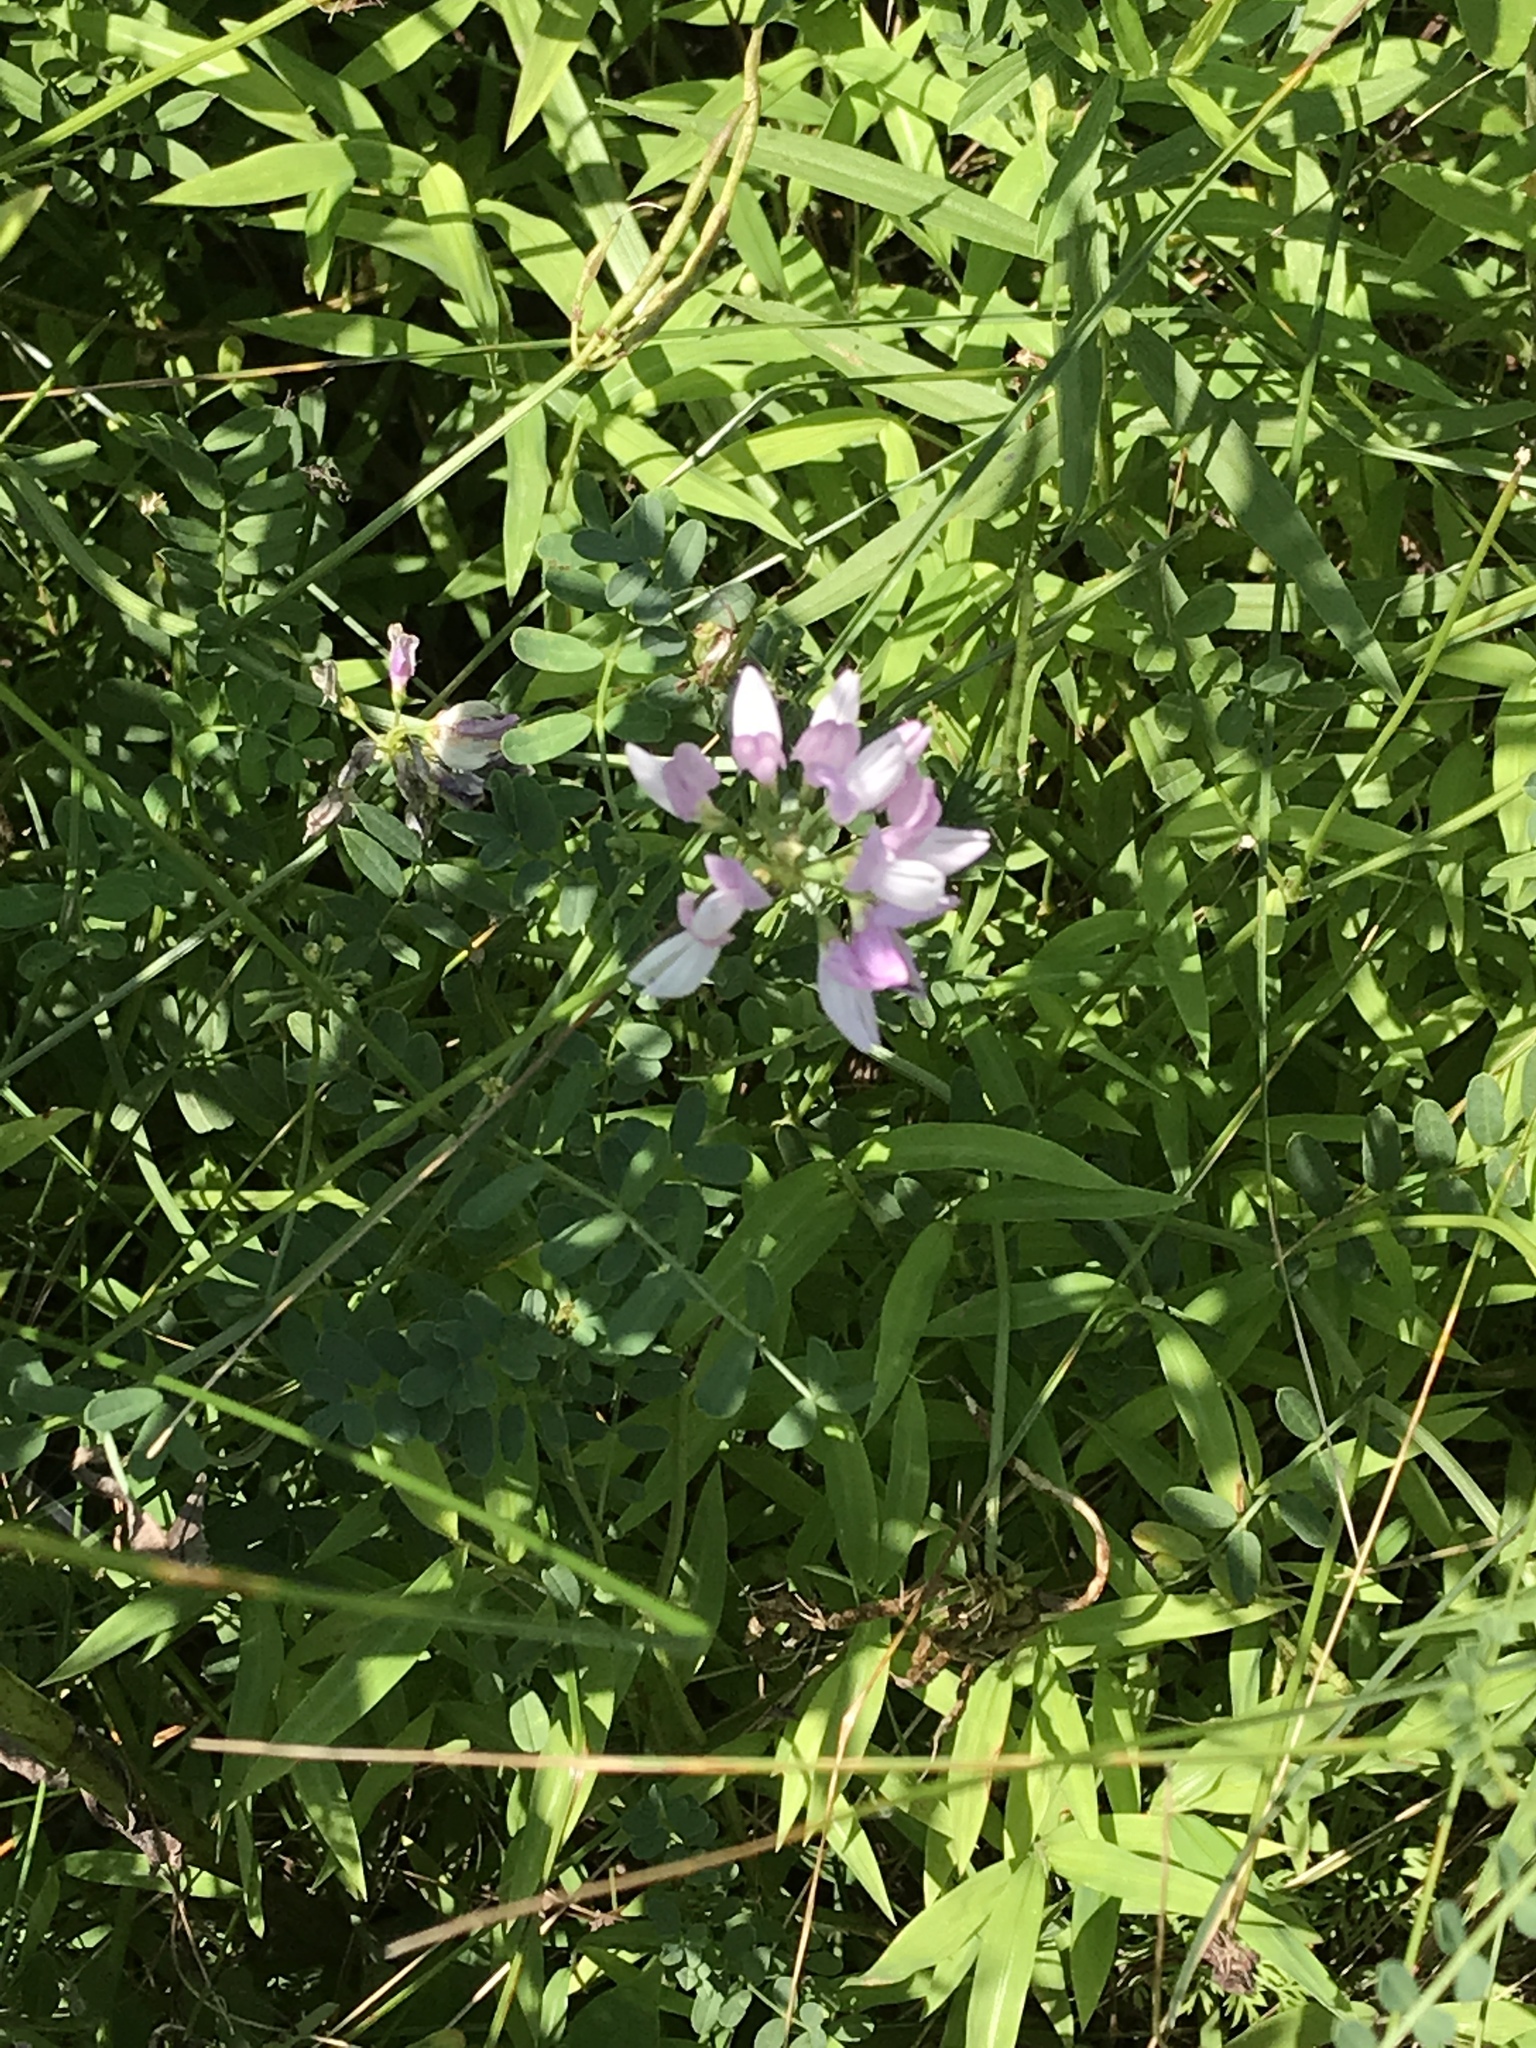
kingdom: Plantae
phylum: Tracheophyta
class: Magnoliopsida
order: Fabales
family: Fabaceae
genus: Coronilla
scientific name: Coronilla varia
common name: Crownvetch
